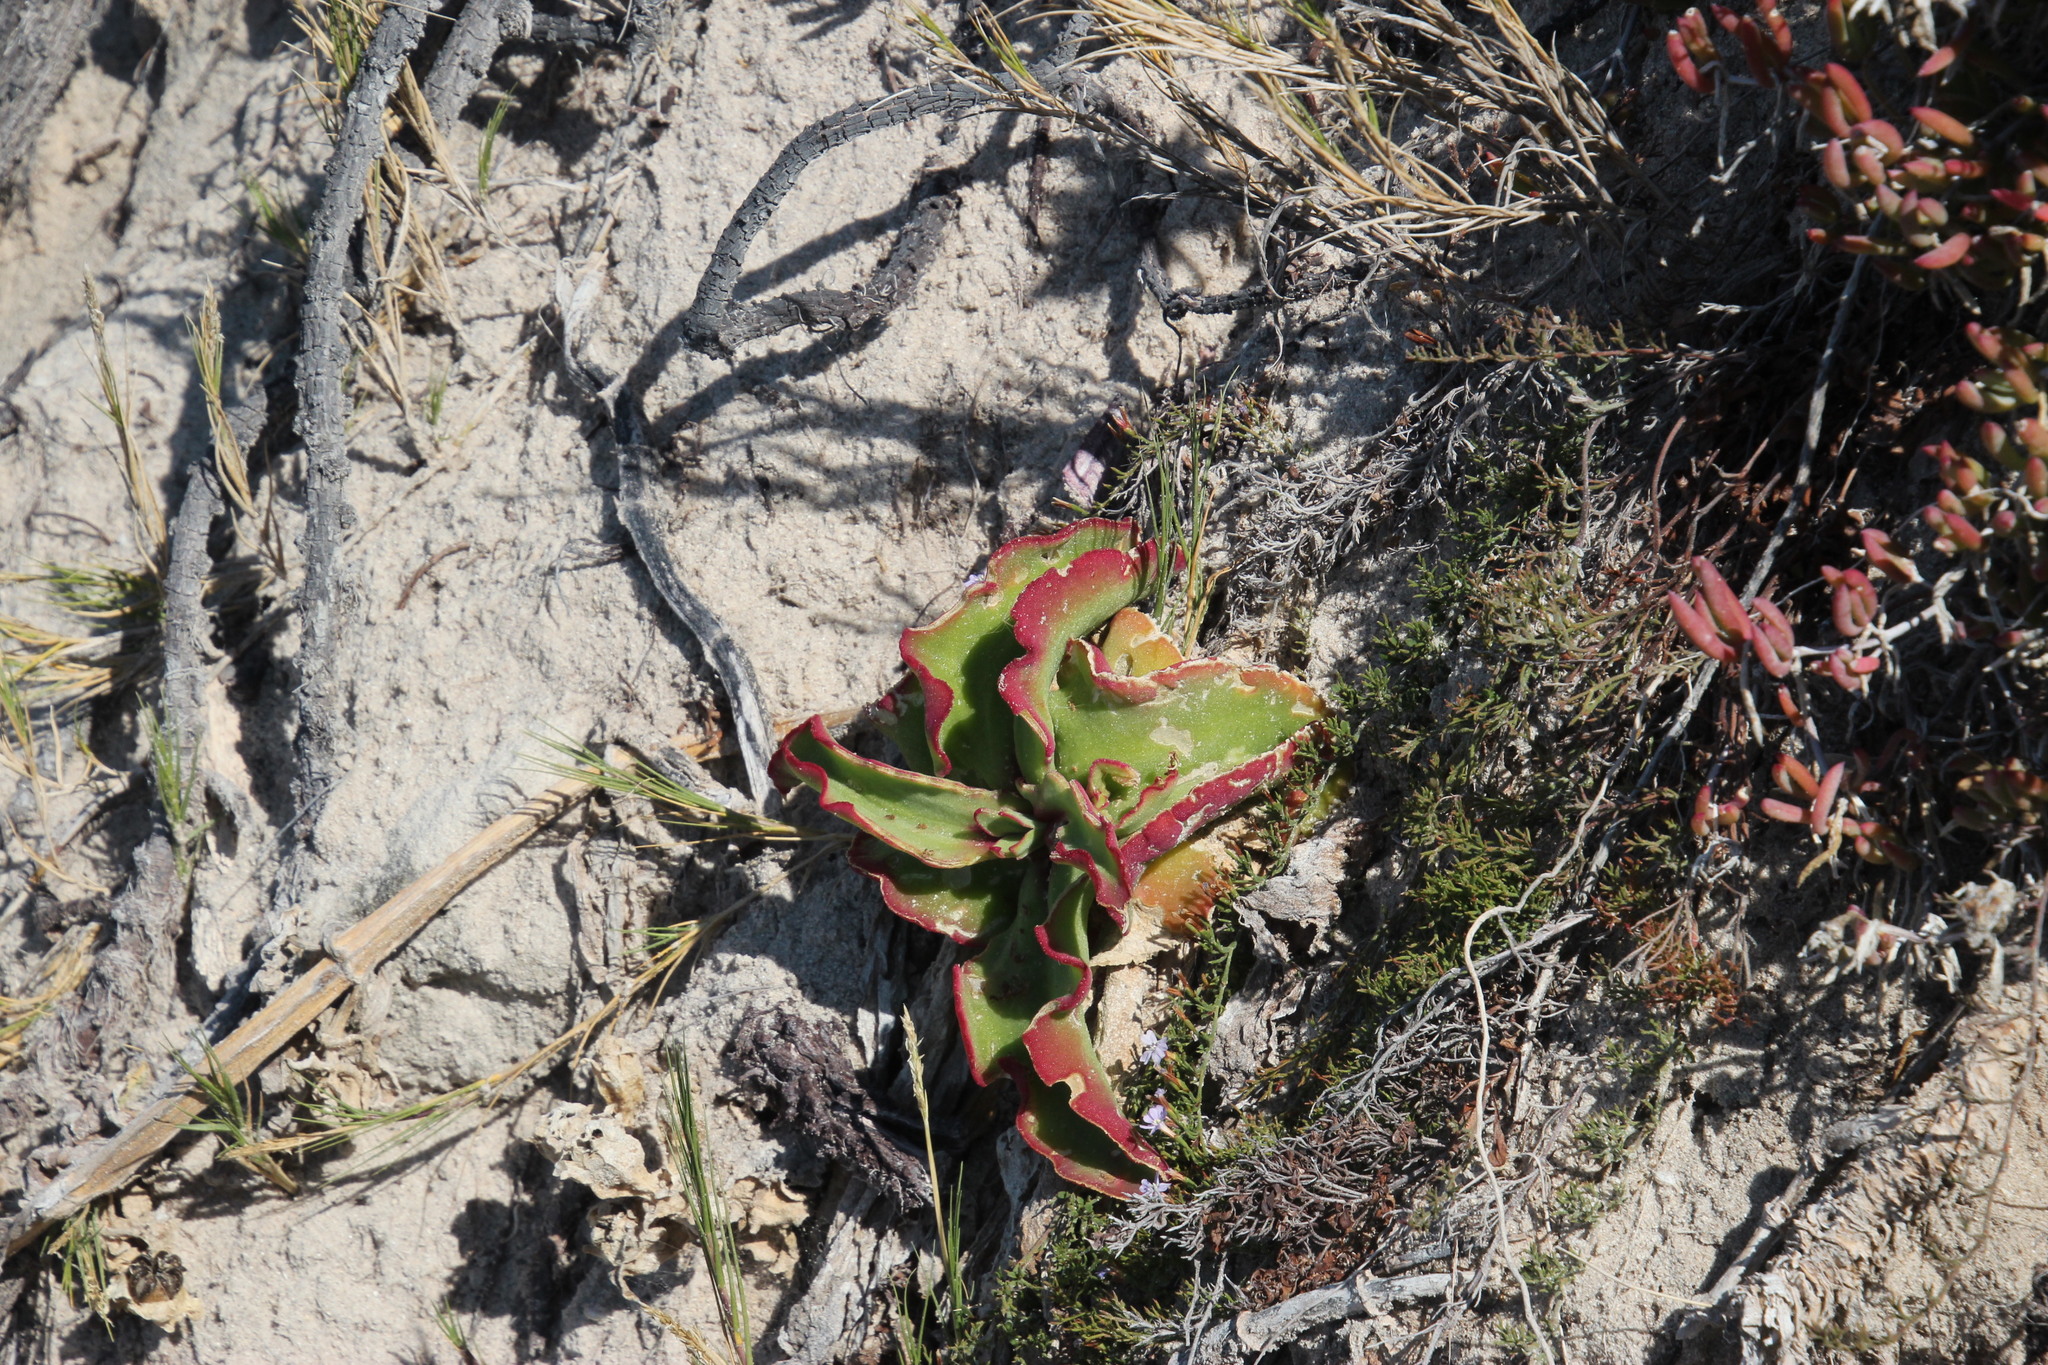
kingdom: Plantae
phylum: Tracheophyta
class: Magnoliopsida
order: Caryophyllales
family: Aizoaceae
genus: Mesembryanthemum
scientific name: Mesembryanthemum crystallinum
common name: Common iceplant
